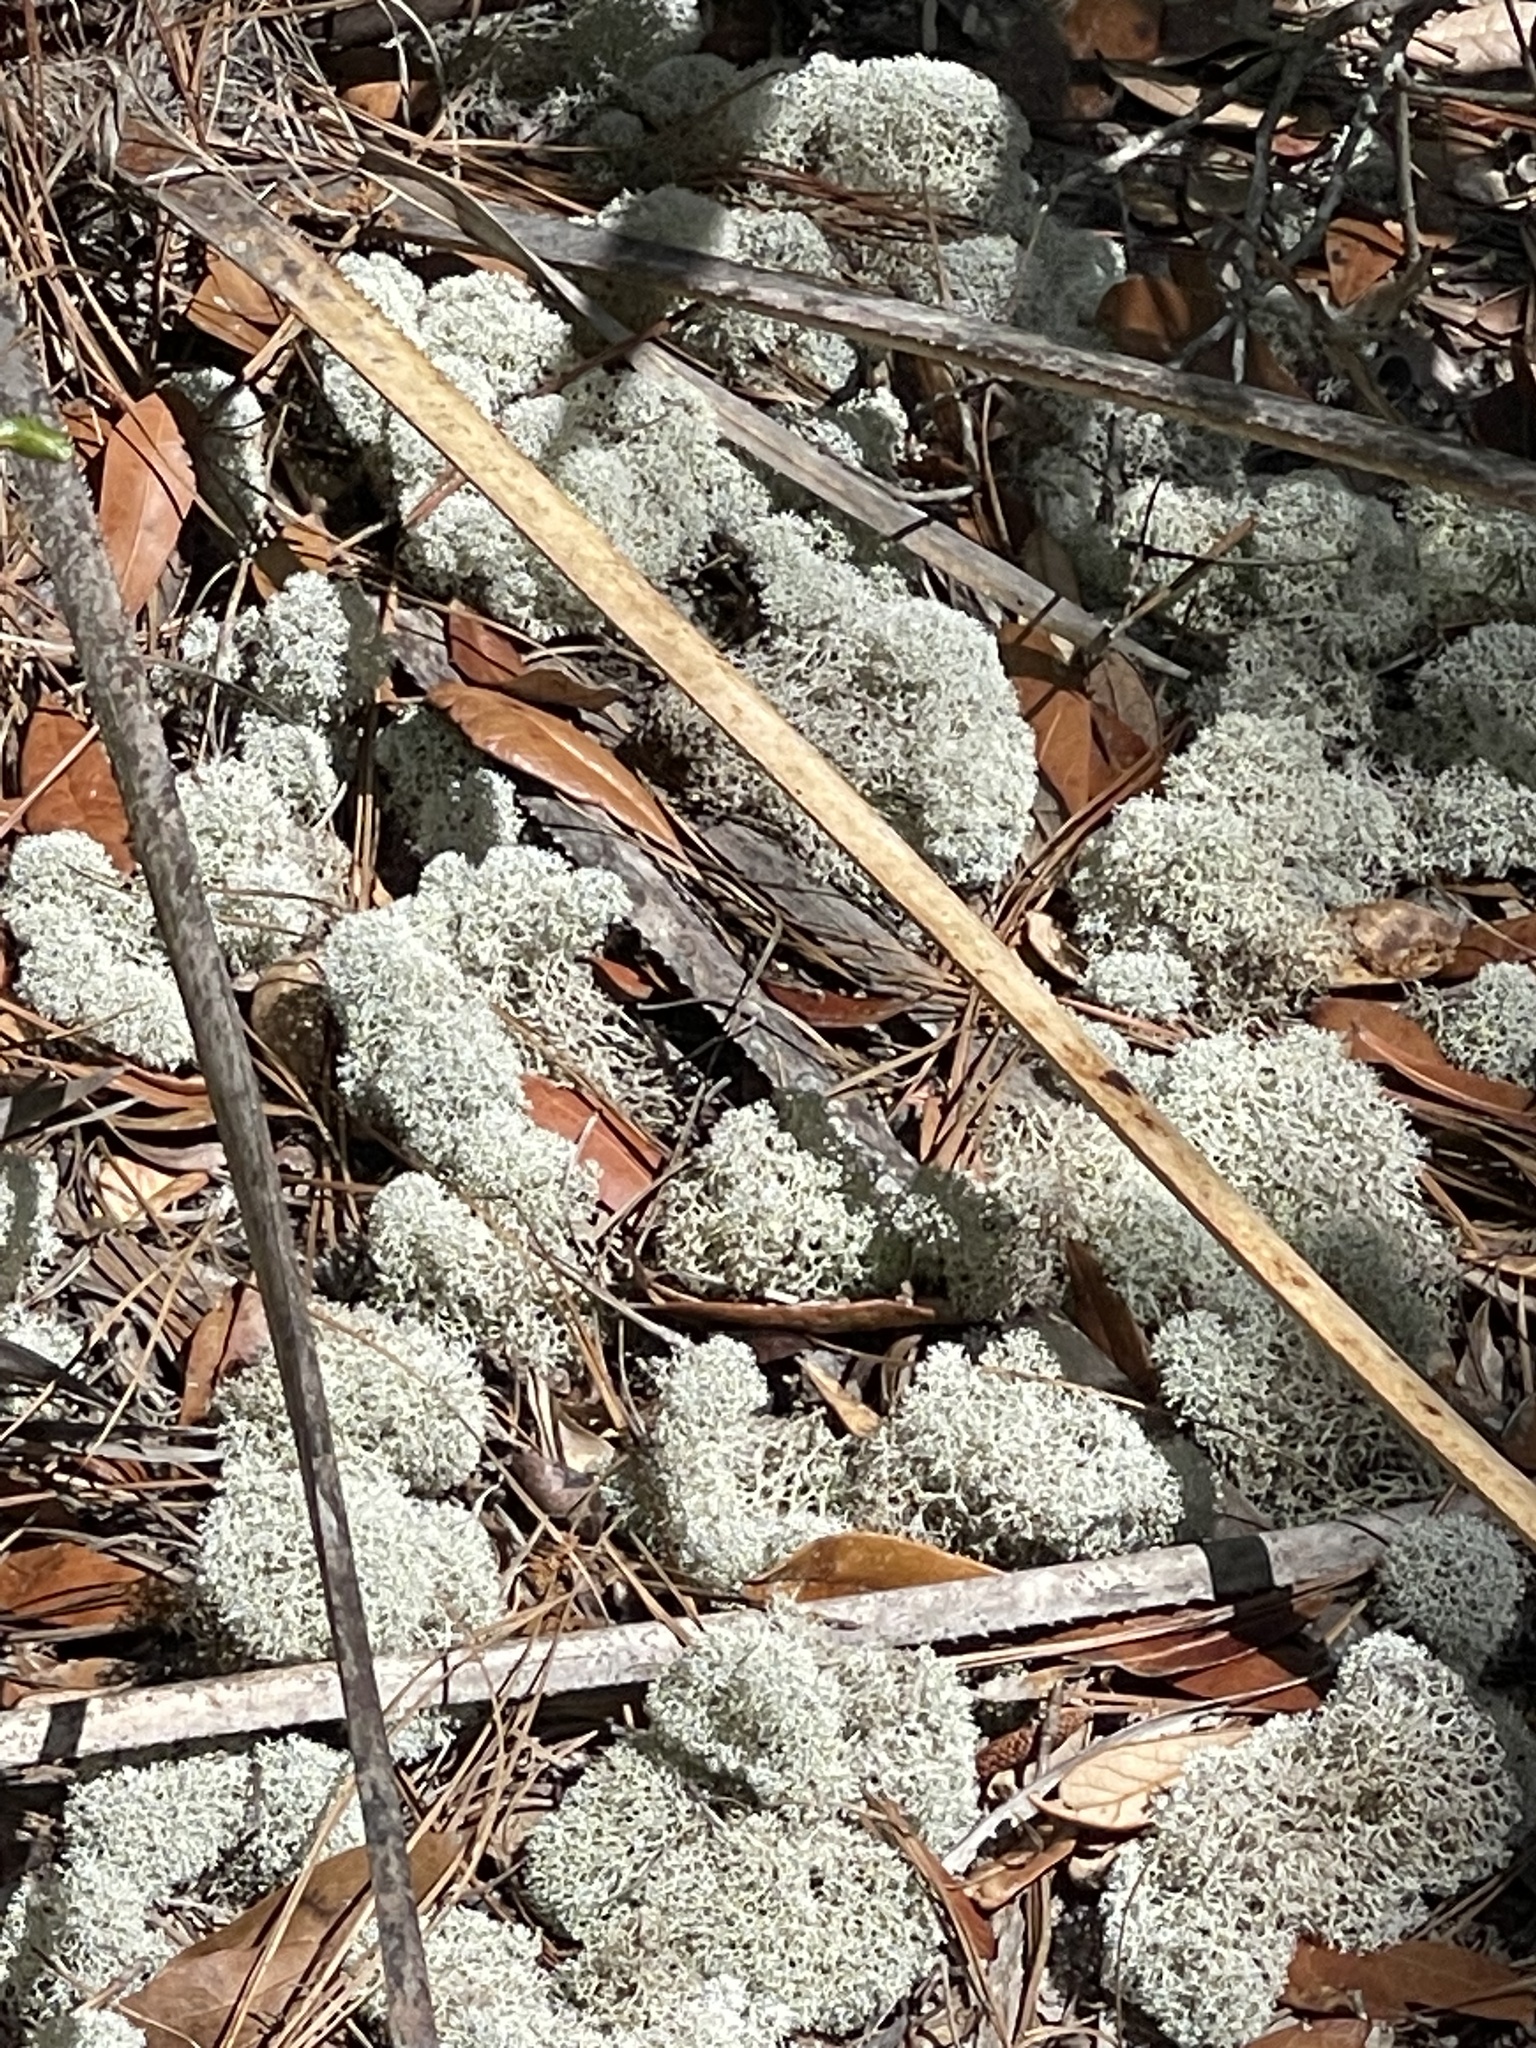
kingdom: Fungi
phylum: Ascomycota
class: Lecanoromycetes
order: Lecanorales
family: Cladoniaceae
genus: Cladonia
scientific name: Cladonia evansii
